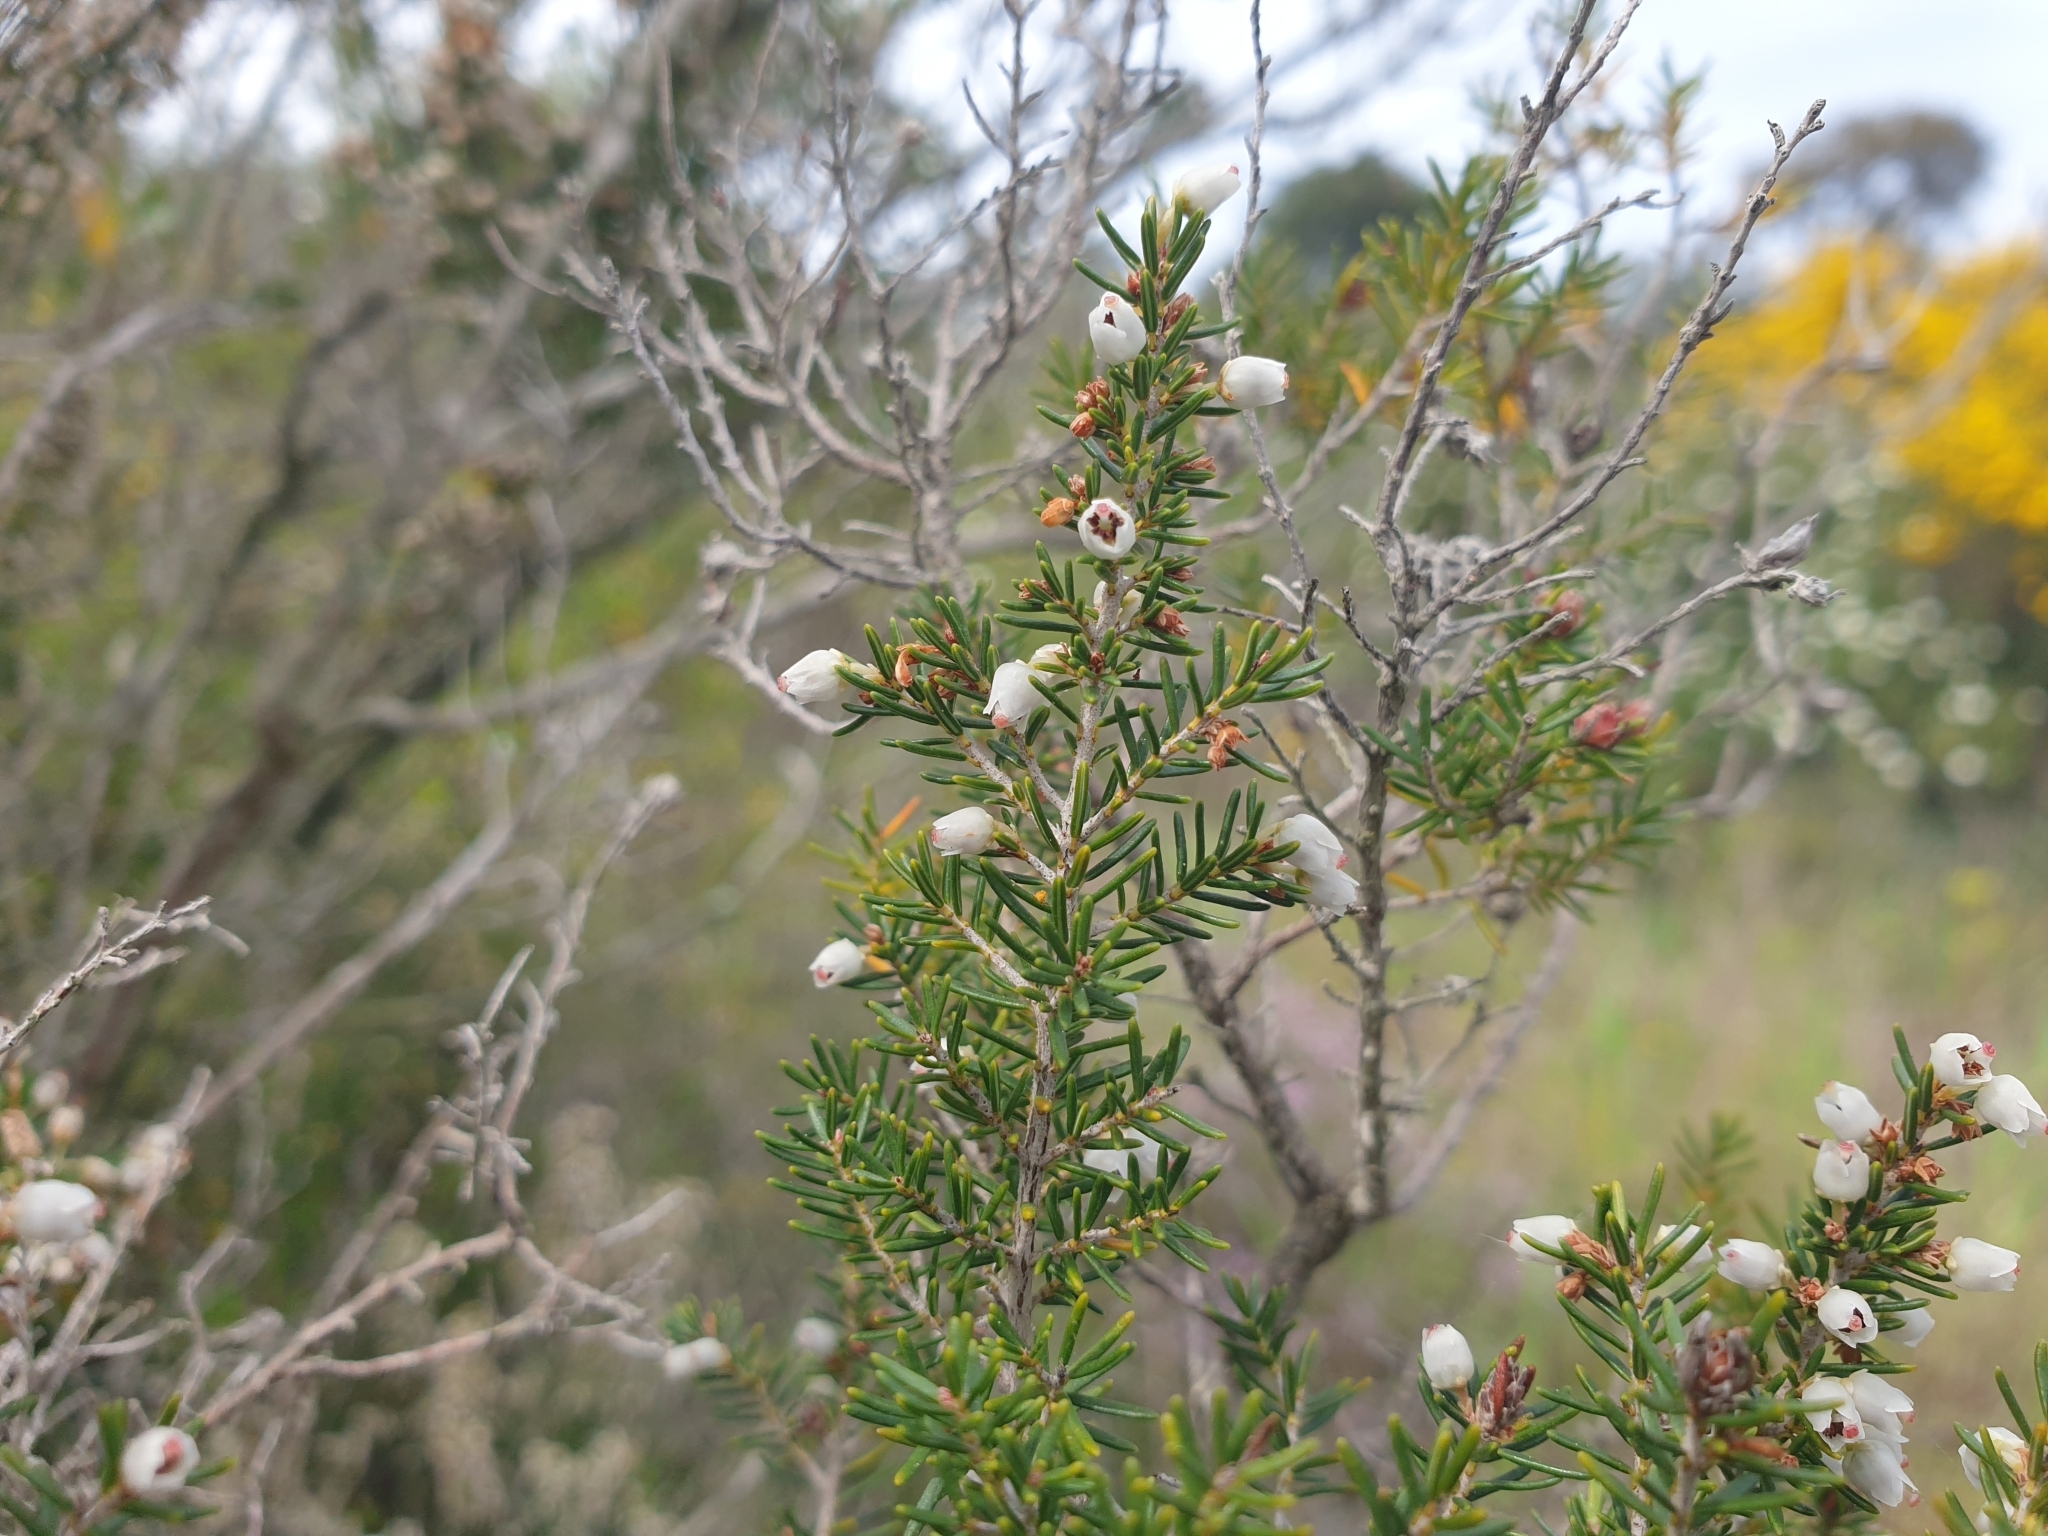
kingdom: Plantae
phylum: Tracheophyta
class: Magnoliopsida
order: Ericales
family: Ericaceae
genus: Erica
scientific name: Erica arborea
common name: Tree heath
